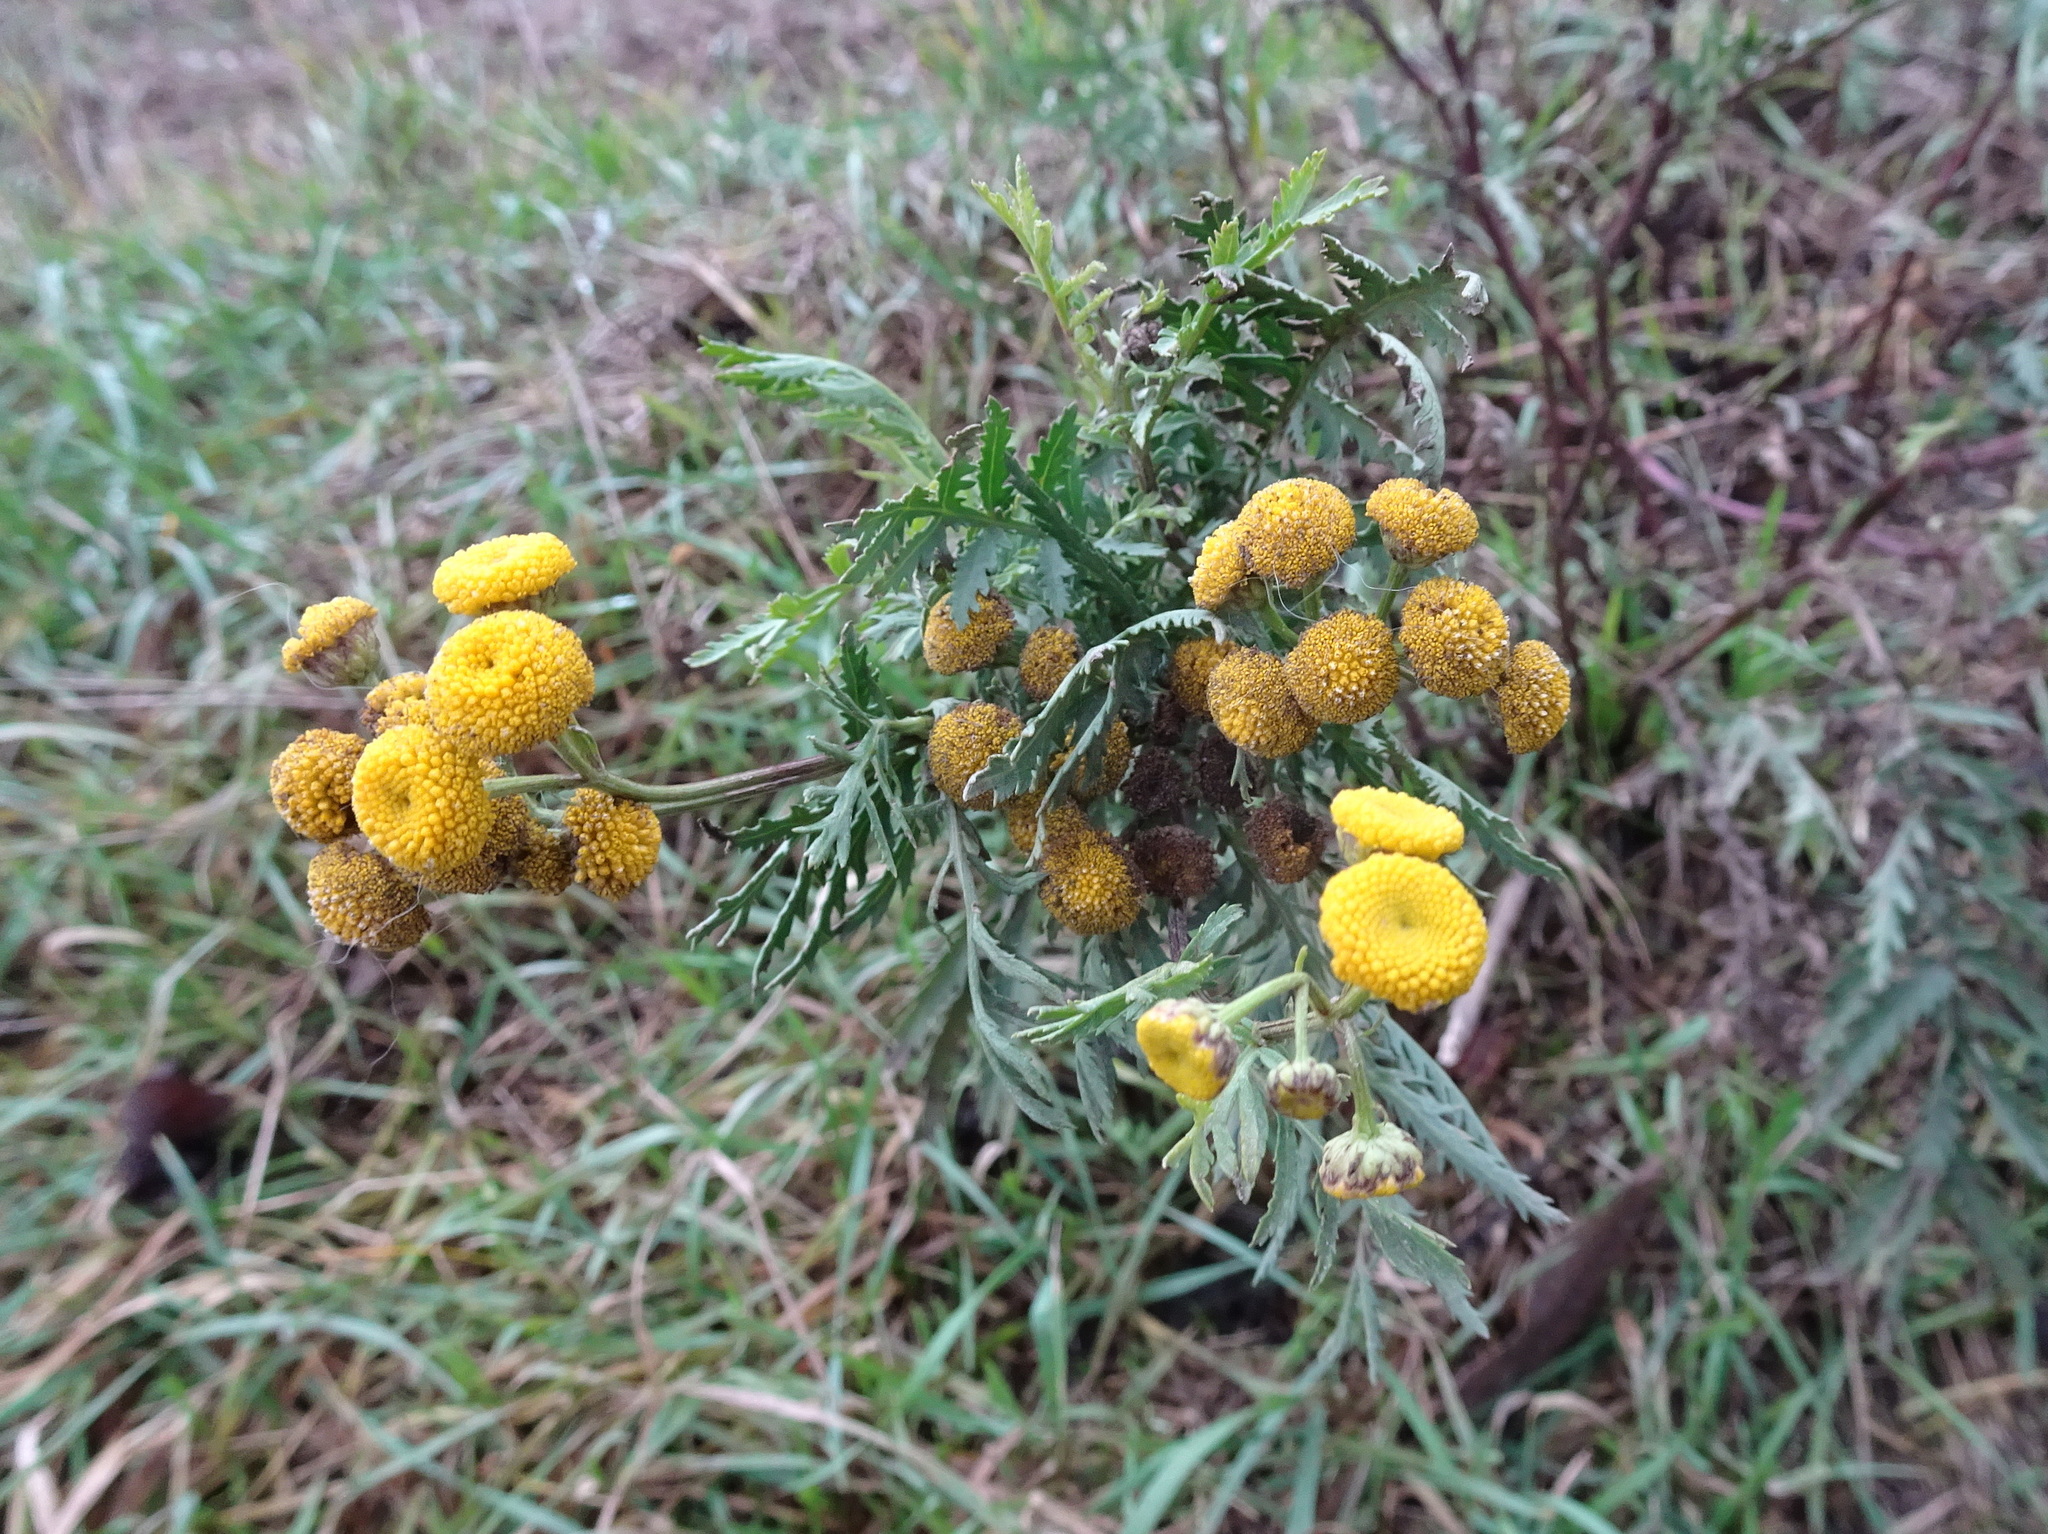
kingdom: Plantae
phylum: Tracheophyta
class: Magnoliopsida
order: Asterales
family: Asteraceae
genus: Tanacetum
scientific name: Tanacetum vulgare
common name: Common tansy
